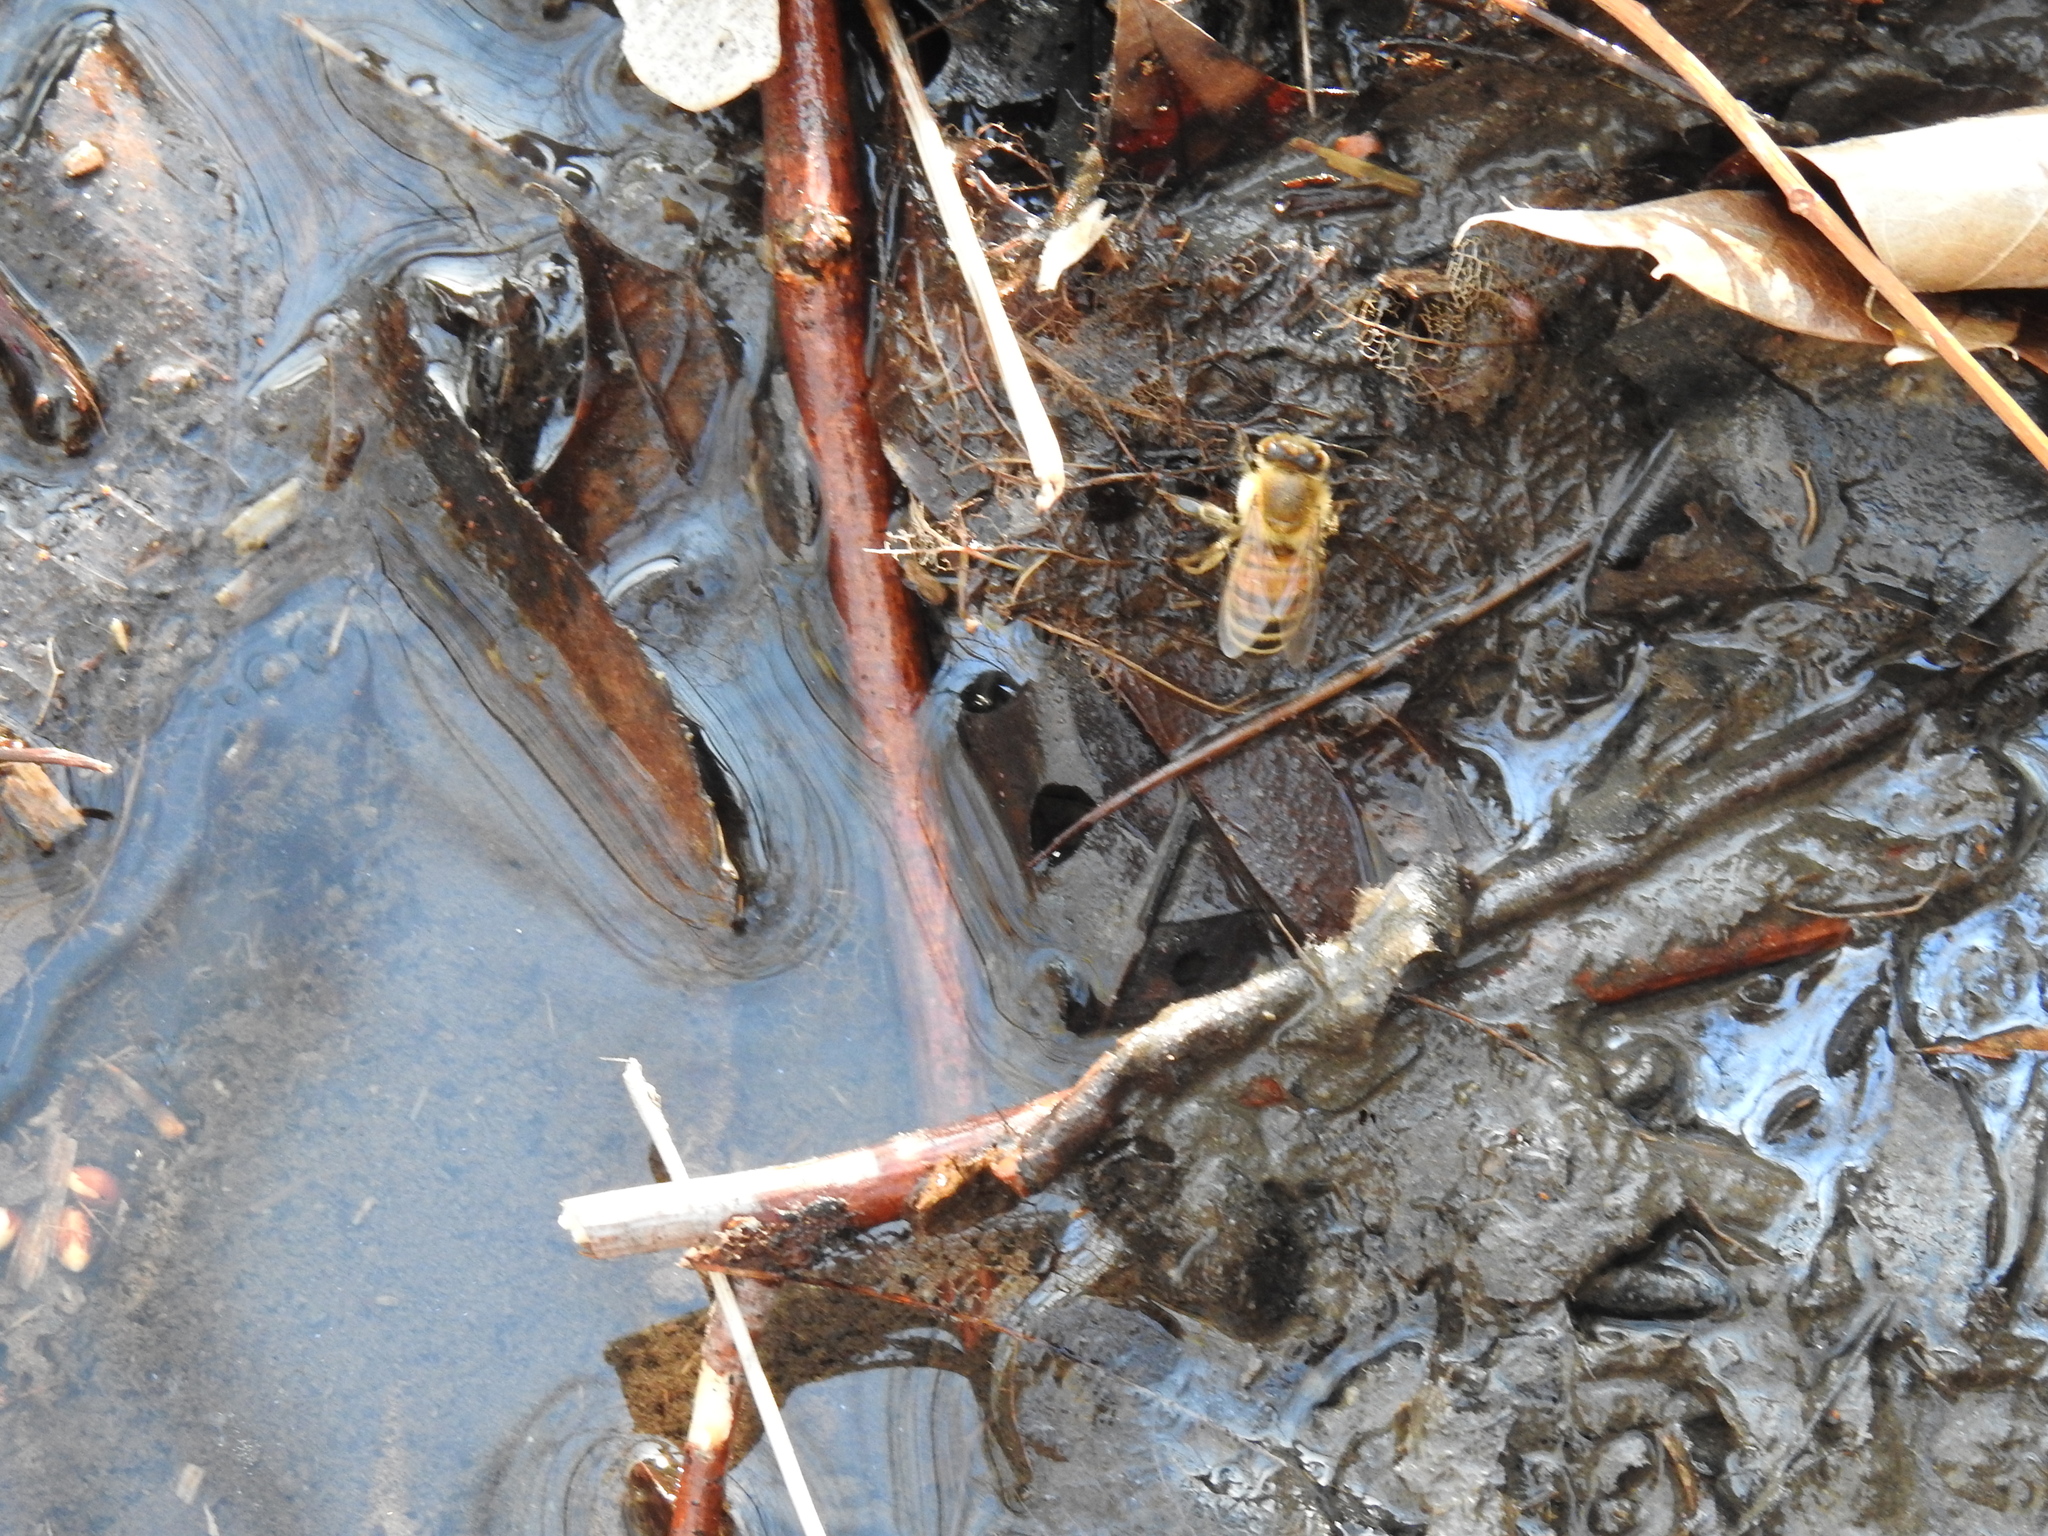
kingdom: Animalia
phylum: Arthropoda
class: Insecta
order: Hymenoptera
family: Apidae
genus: Apis
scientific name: Apis mellifera
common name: Honey bee
